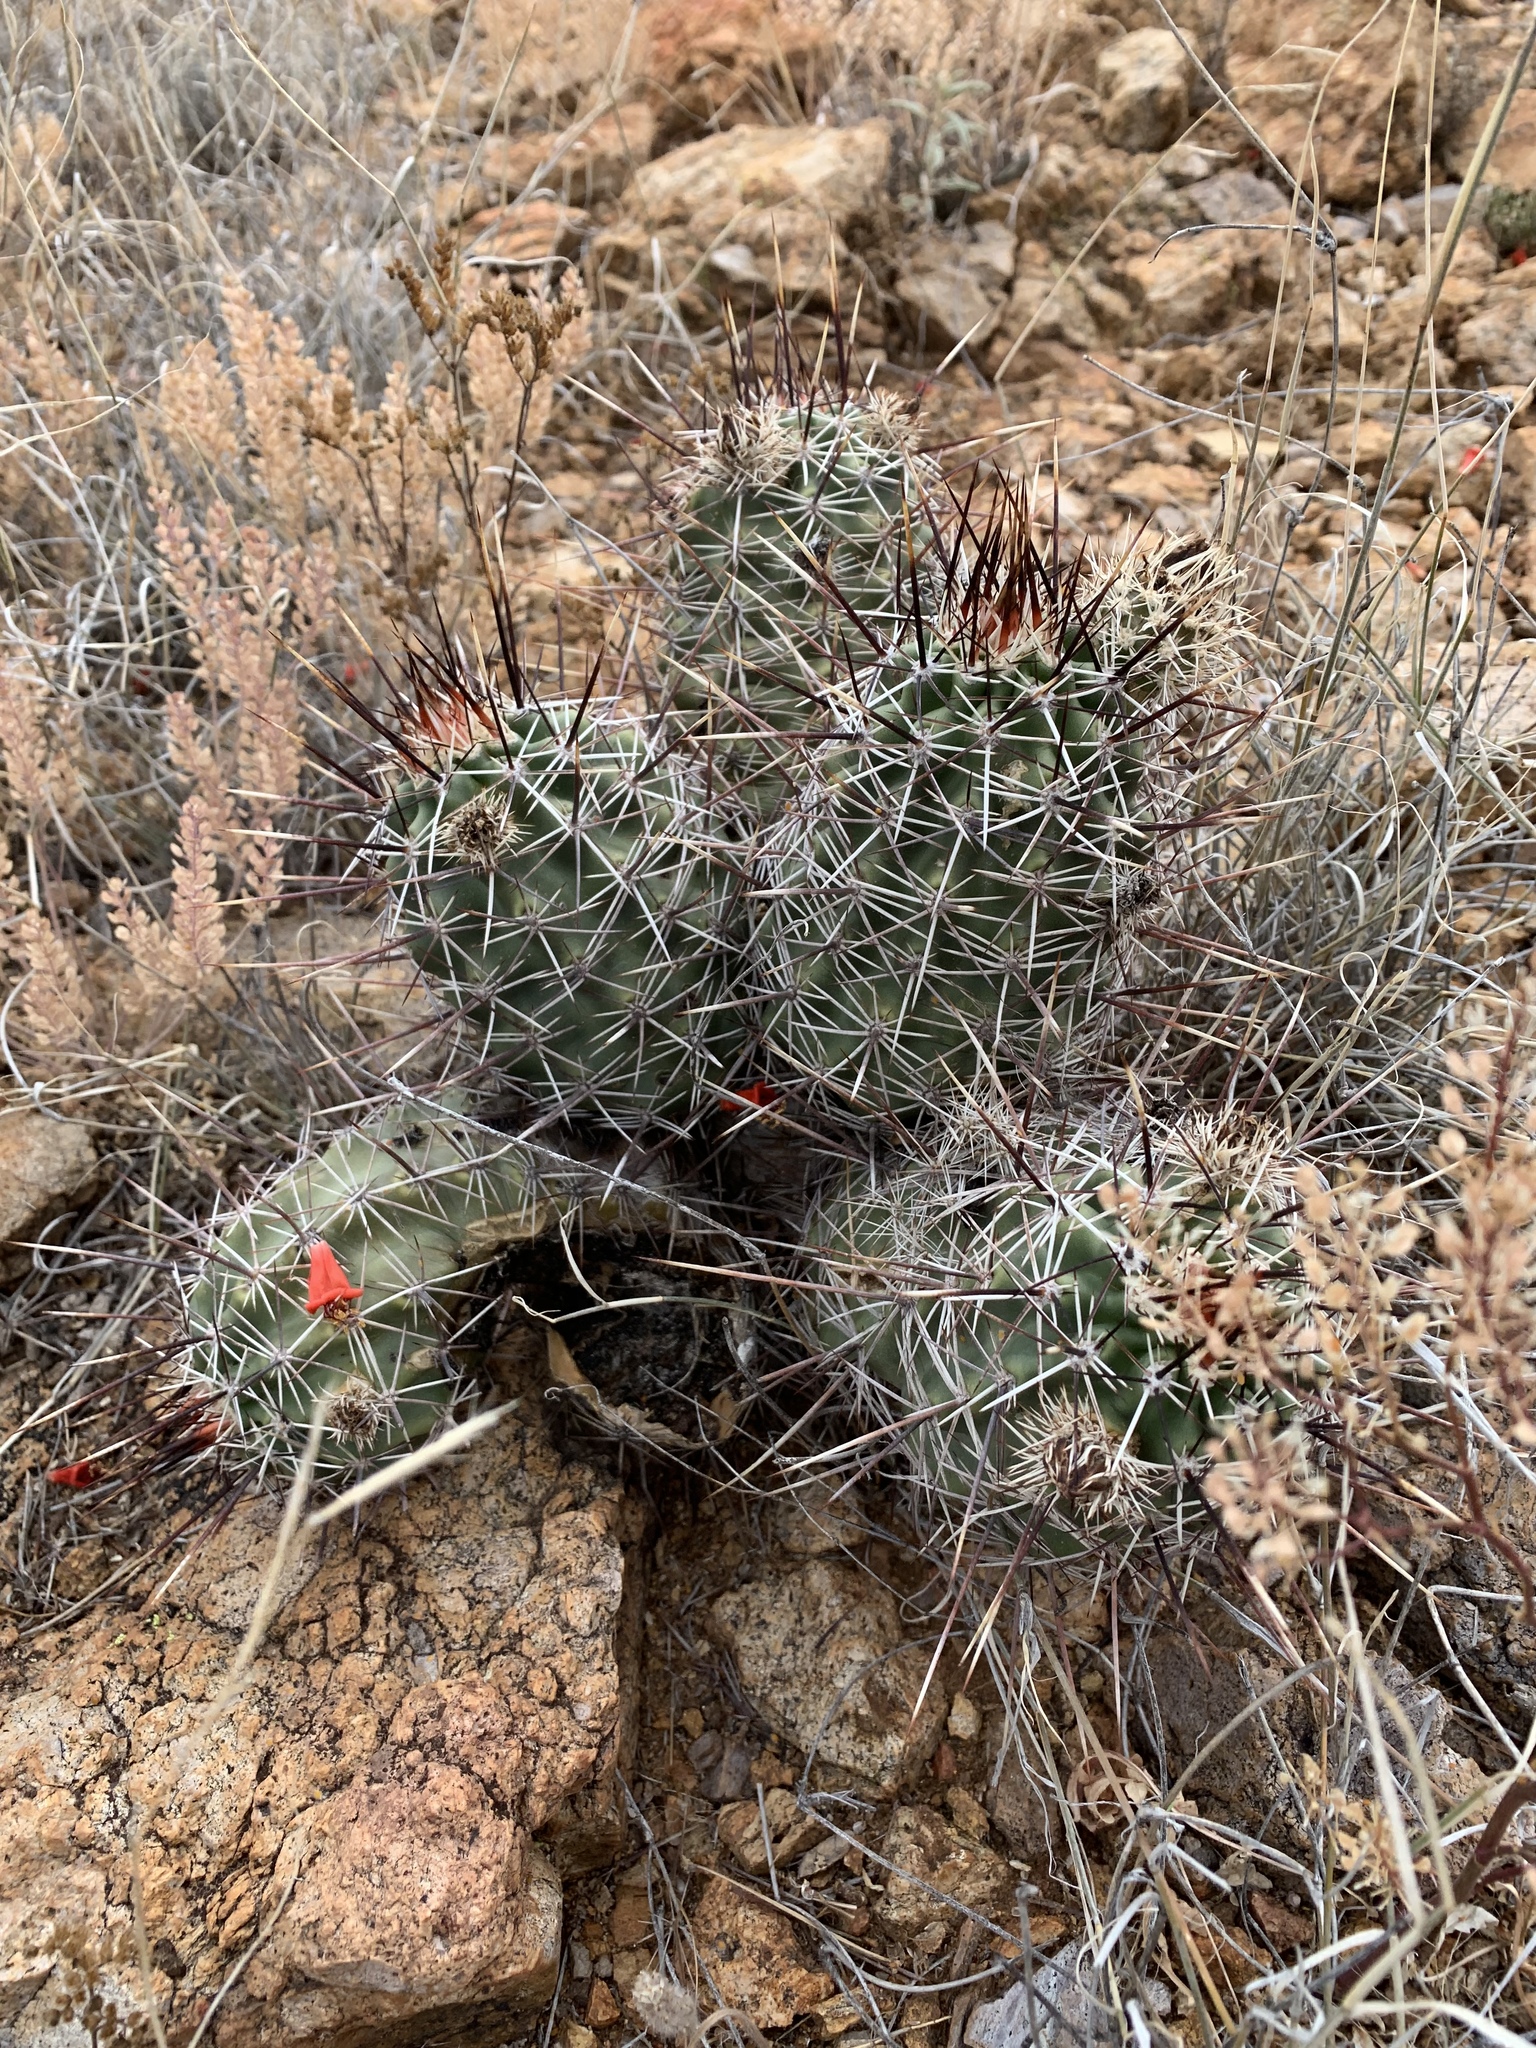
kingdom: Plantae
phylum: Tracheophyta
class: Magnoliopsida
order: Caryophyllales
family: Cactaceae
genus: Echinocereus
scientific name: Echinocereus fendleri
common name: Fendler's hedgehog cactus
